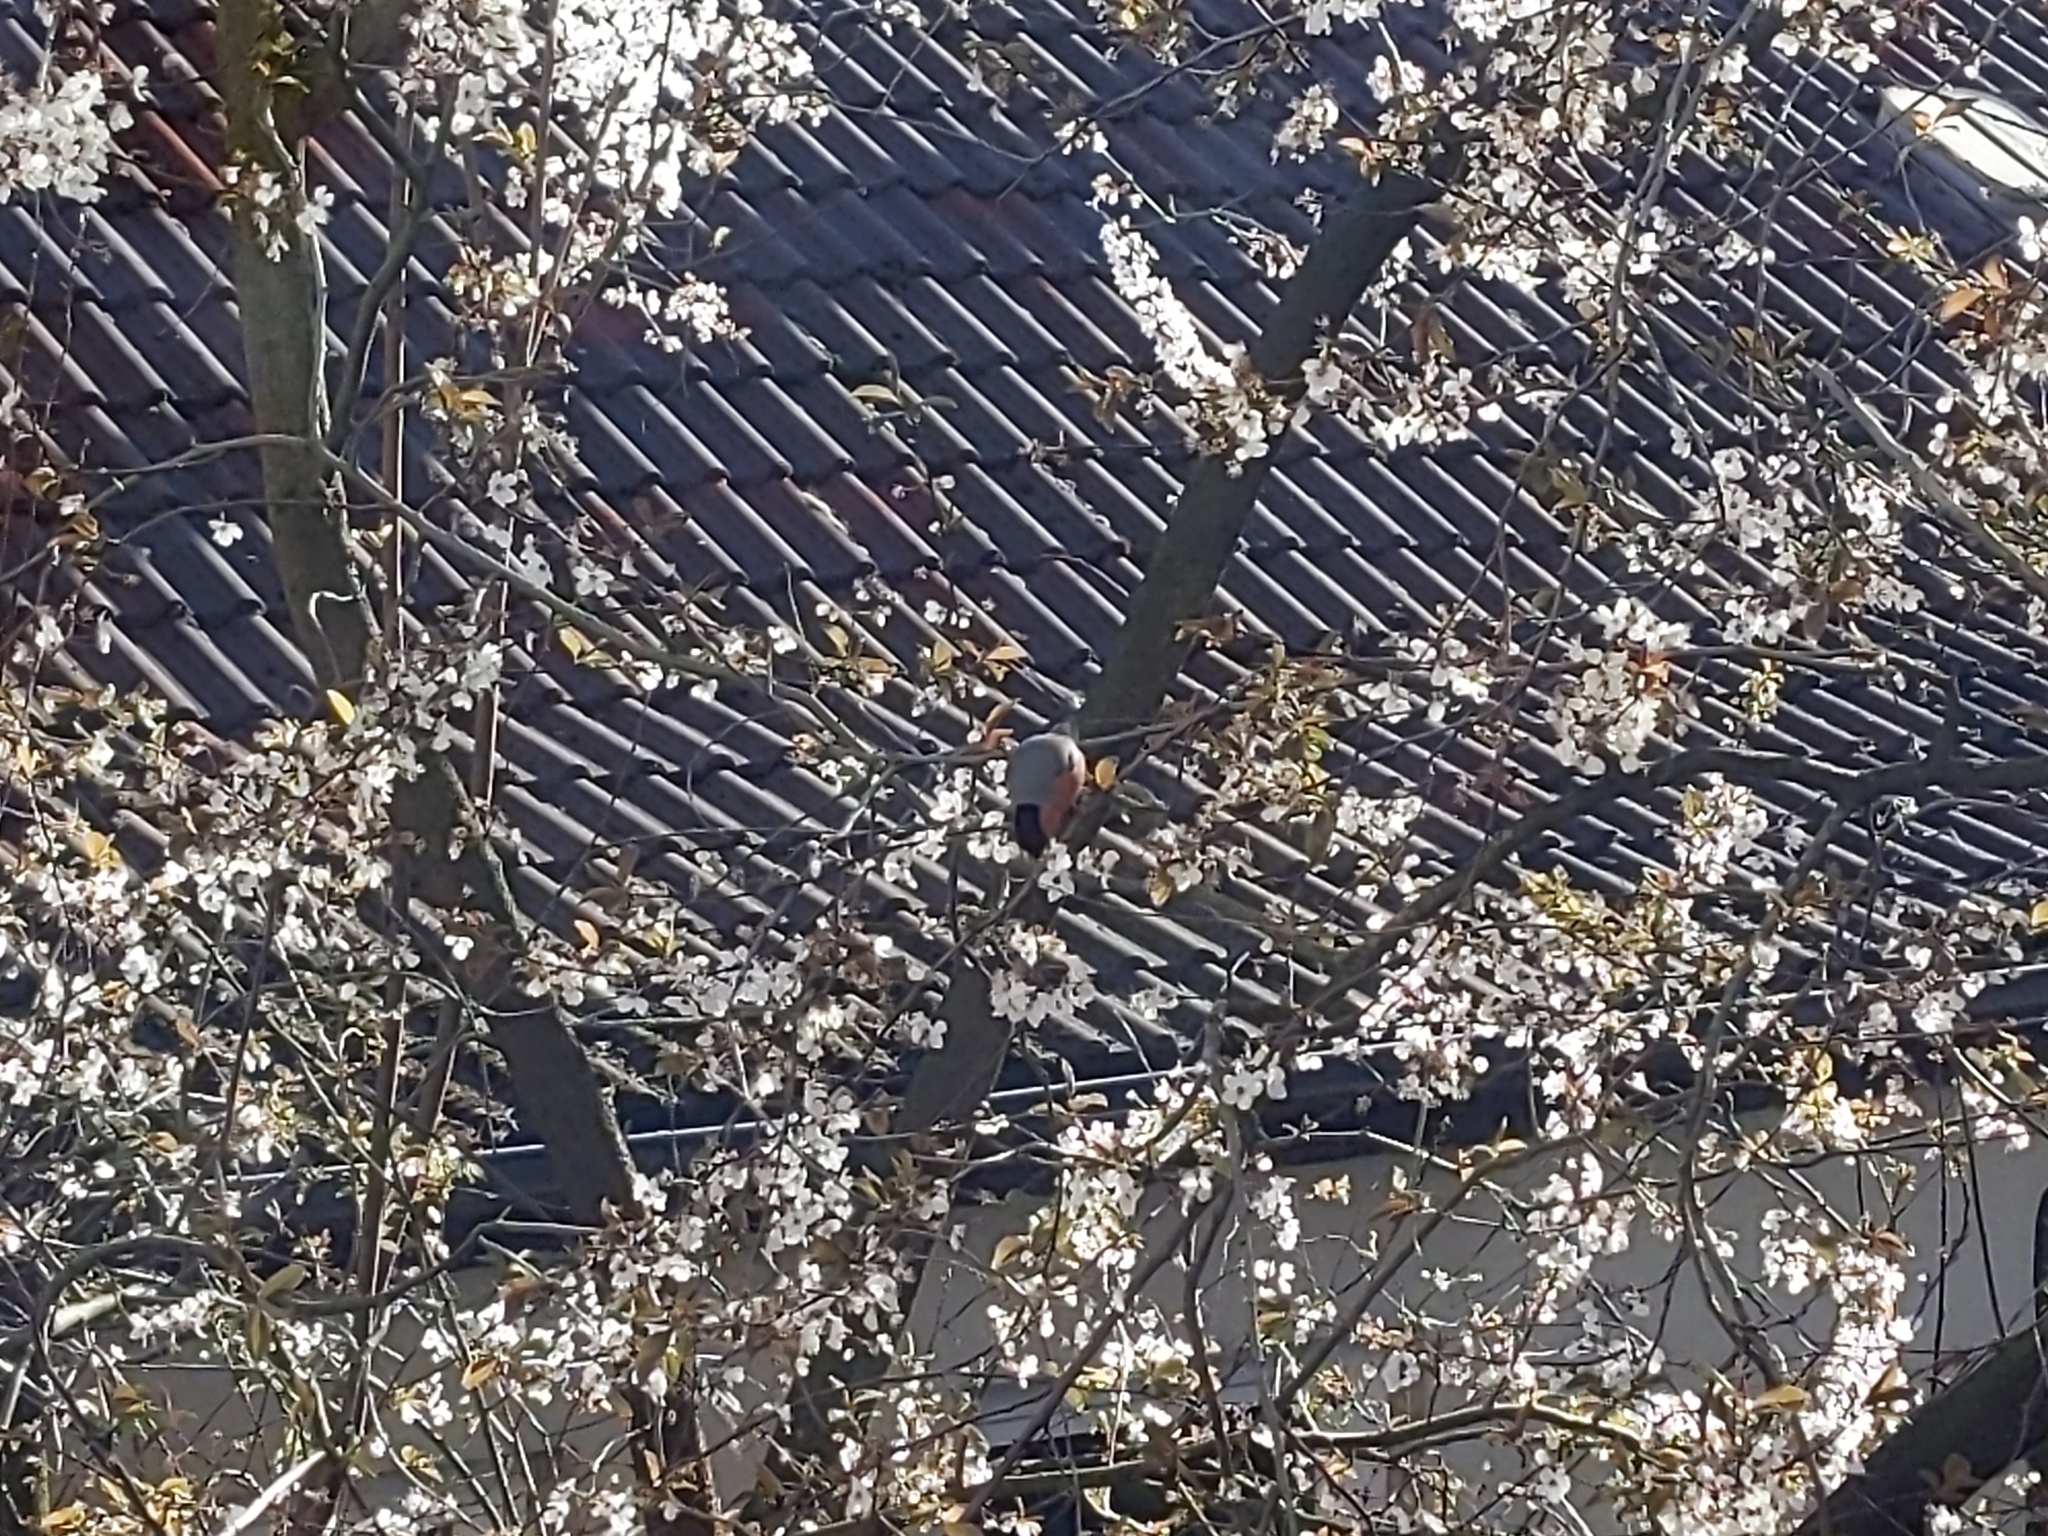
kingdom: Animalia
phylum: Chordata
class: Aves
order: Passeriformes
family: Fringillidae
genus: Pyrrhula
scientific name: Pyrrhula pyrrhula
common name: Eurasian bullfinch
